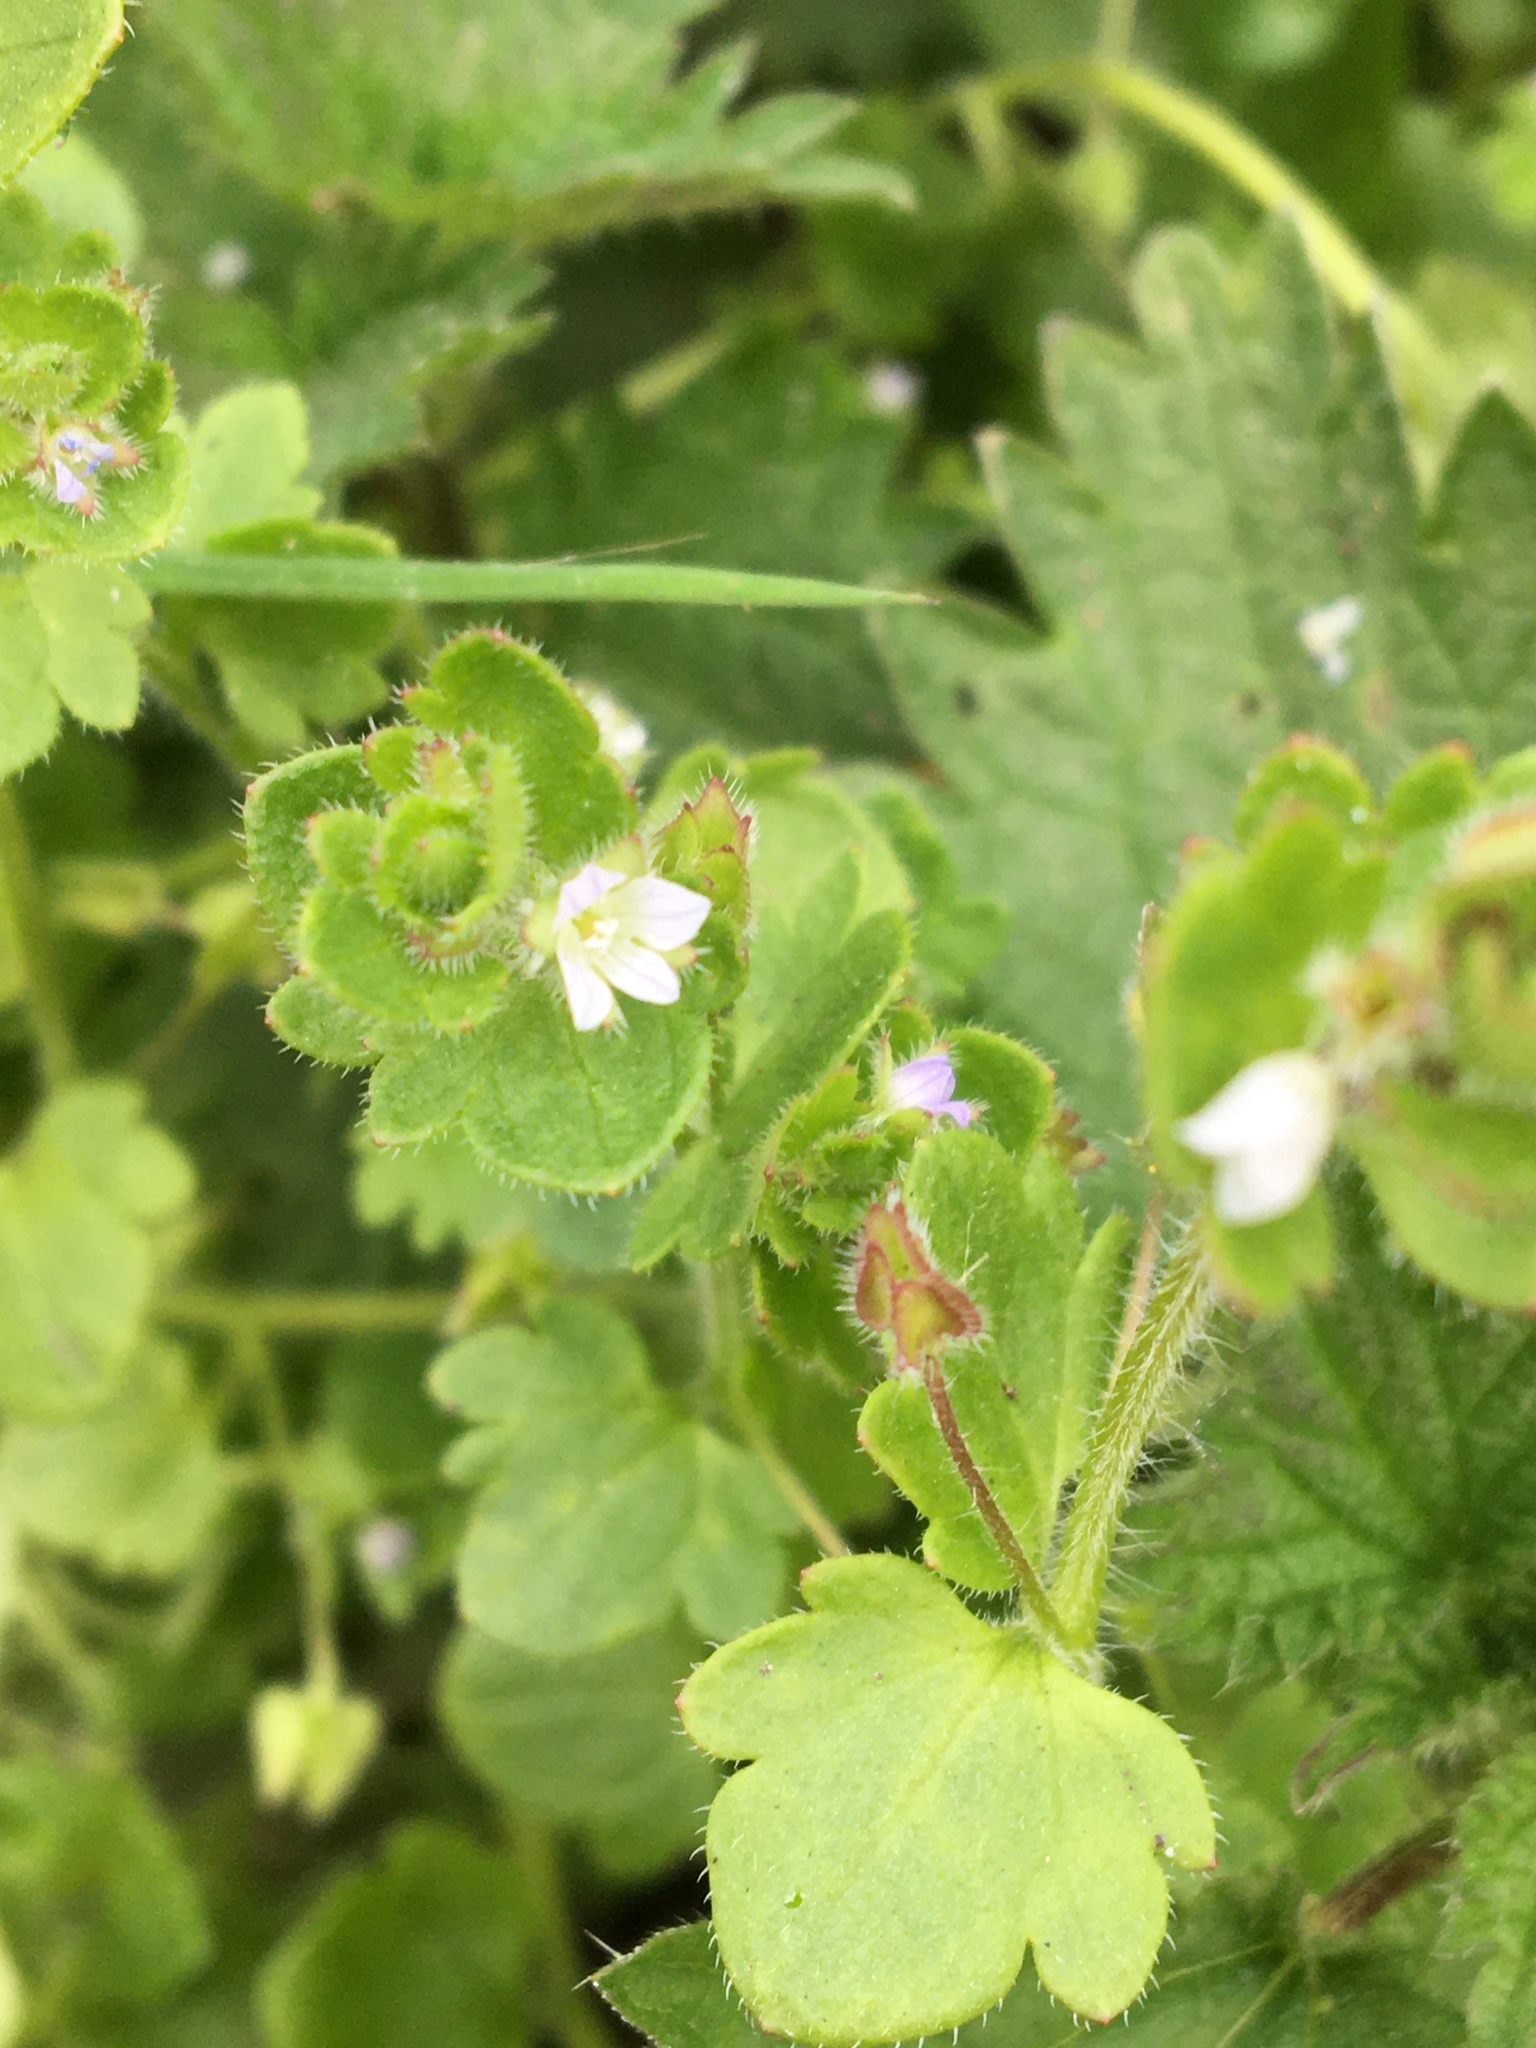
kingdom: Plantae
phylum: Tracheophyta
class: Magnoliopsida
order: Lamiales
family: Plantaginaceae
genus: Veronica
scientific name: Veronica sublobata
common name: False ivy-leaved speedwell
